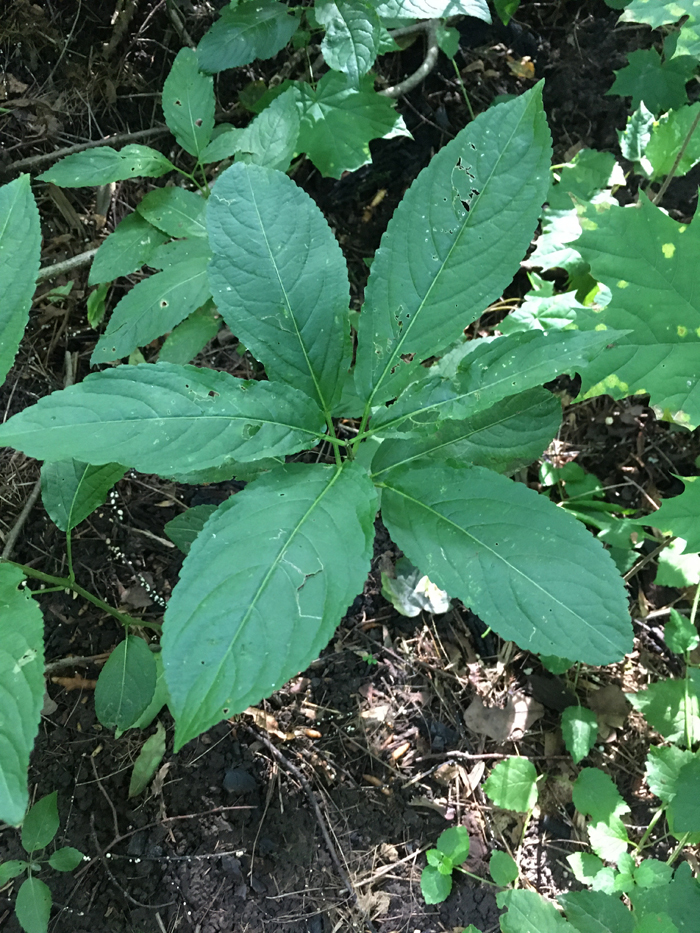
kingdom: Plantae
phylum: Tracheophyta
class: Magnoliopsida
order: Malpighiales
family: Euphorbiaceae
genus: Mercurialis
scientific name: Mercurialis perennis
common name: Dog mercury
